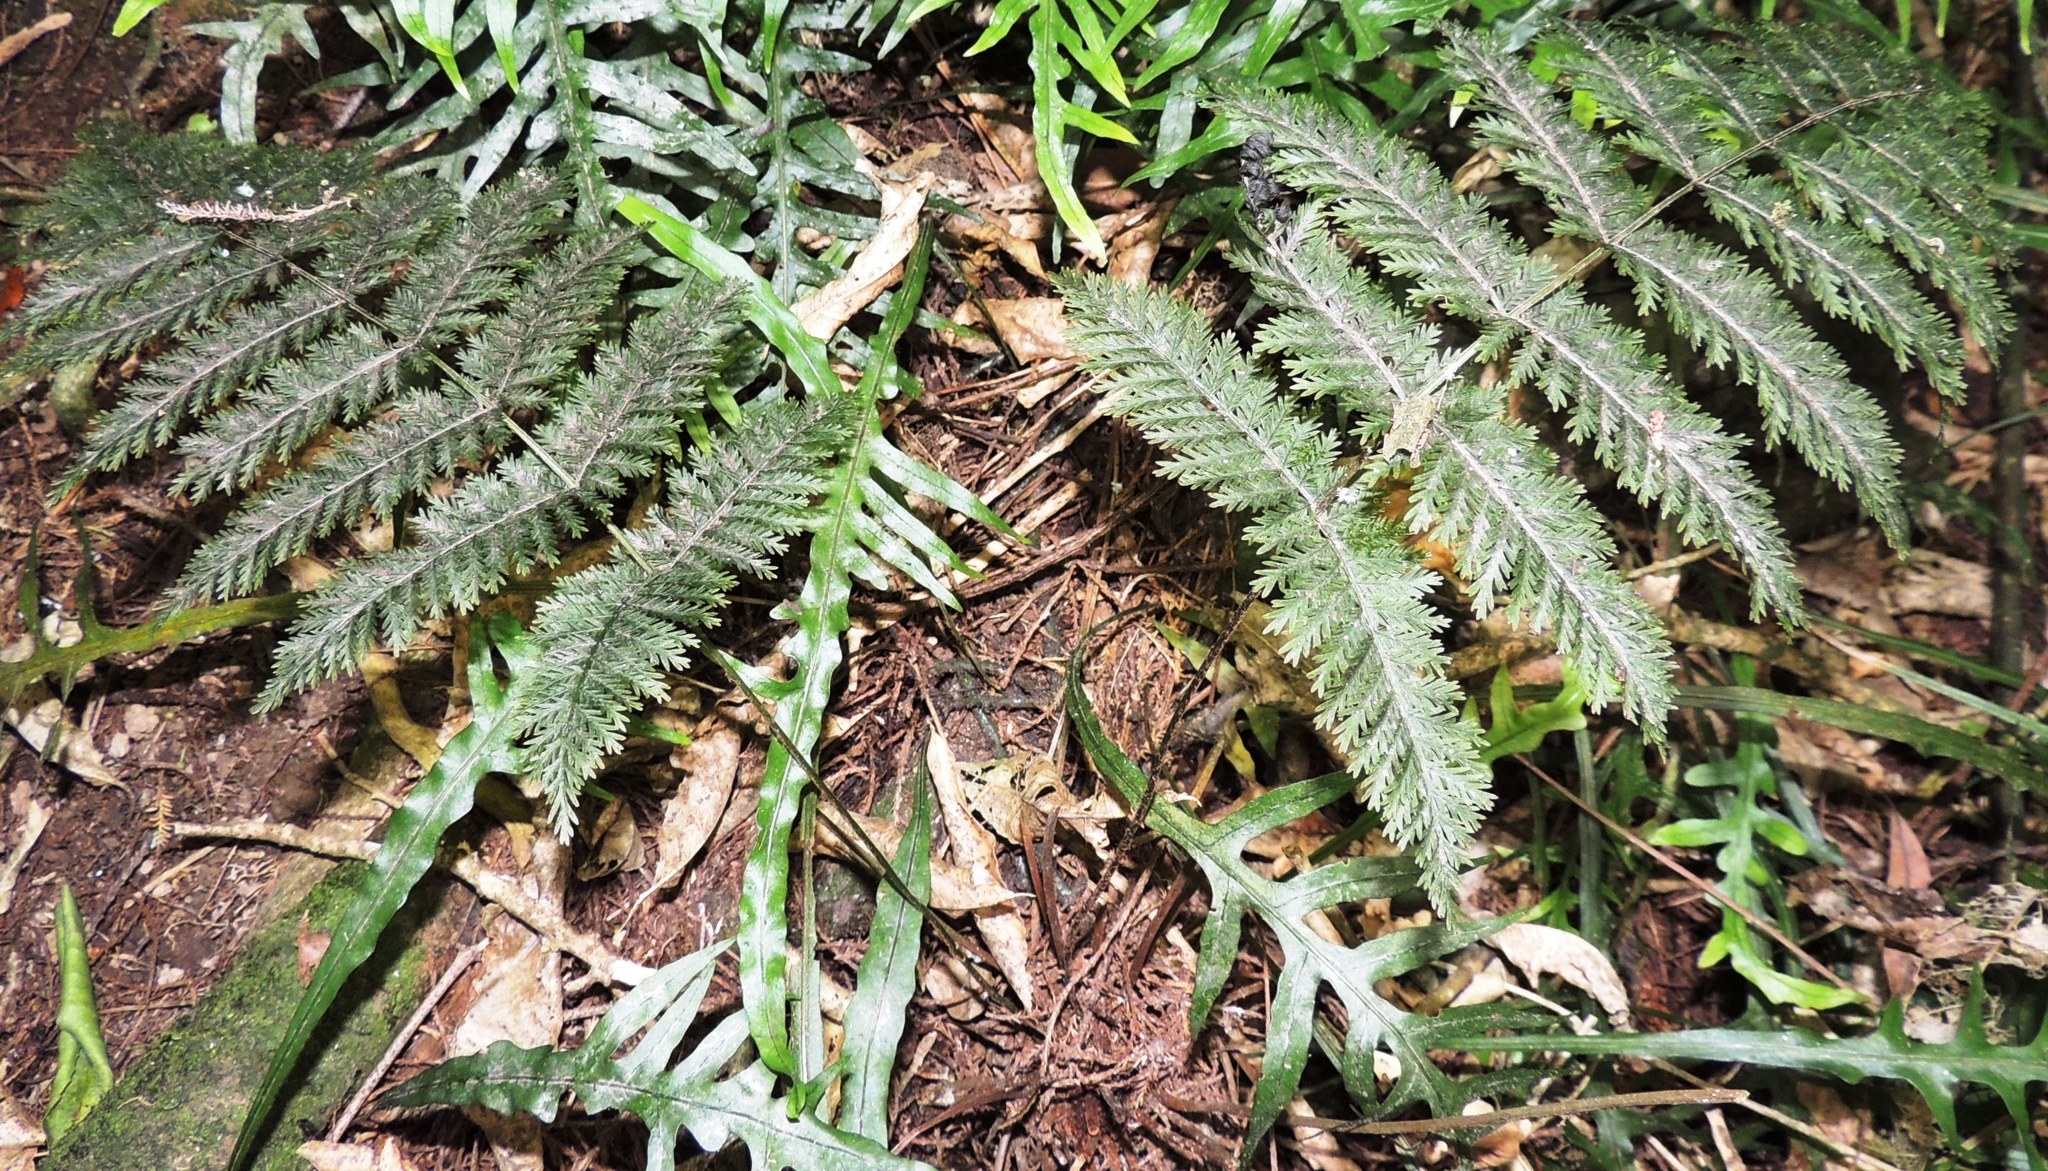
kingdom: Plantae
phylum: Tracheophyta
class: Polypodiopsida
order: Osmundales
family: Osmundaceae
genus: Leptopteris
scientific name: Leptopteris hymenophylloides
